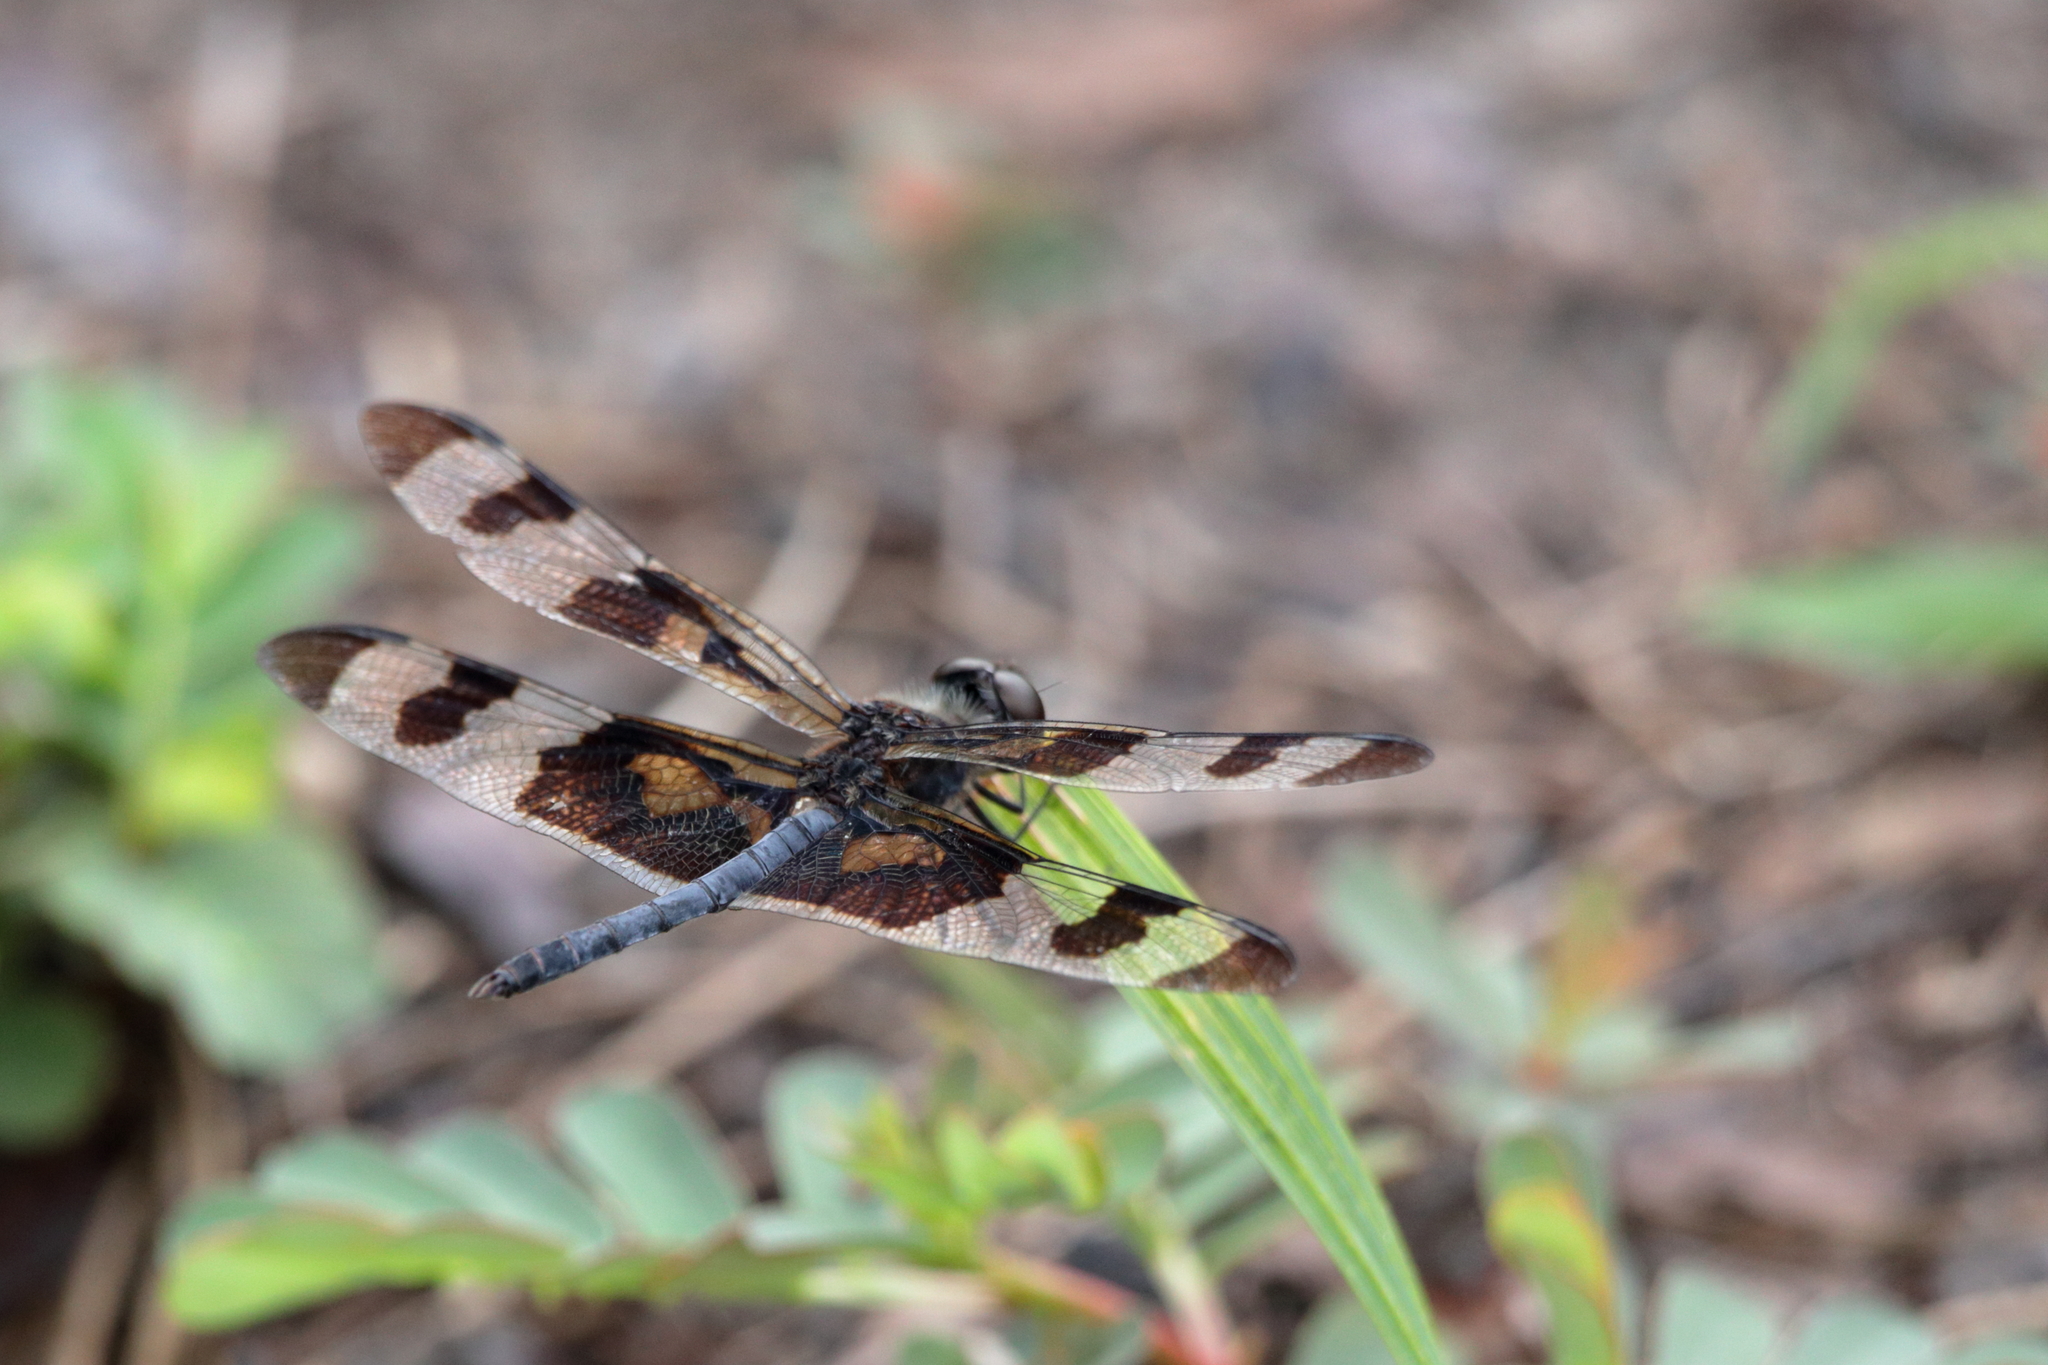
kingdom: Animalia
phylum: Arthropoda
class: Insecta
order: Odonata
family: Libellulidae
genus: Celithemis
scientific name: Celithemis fasciata
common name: Banded pennant
